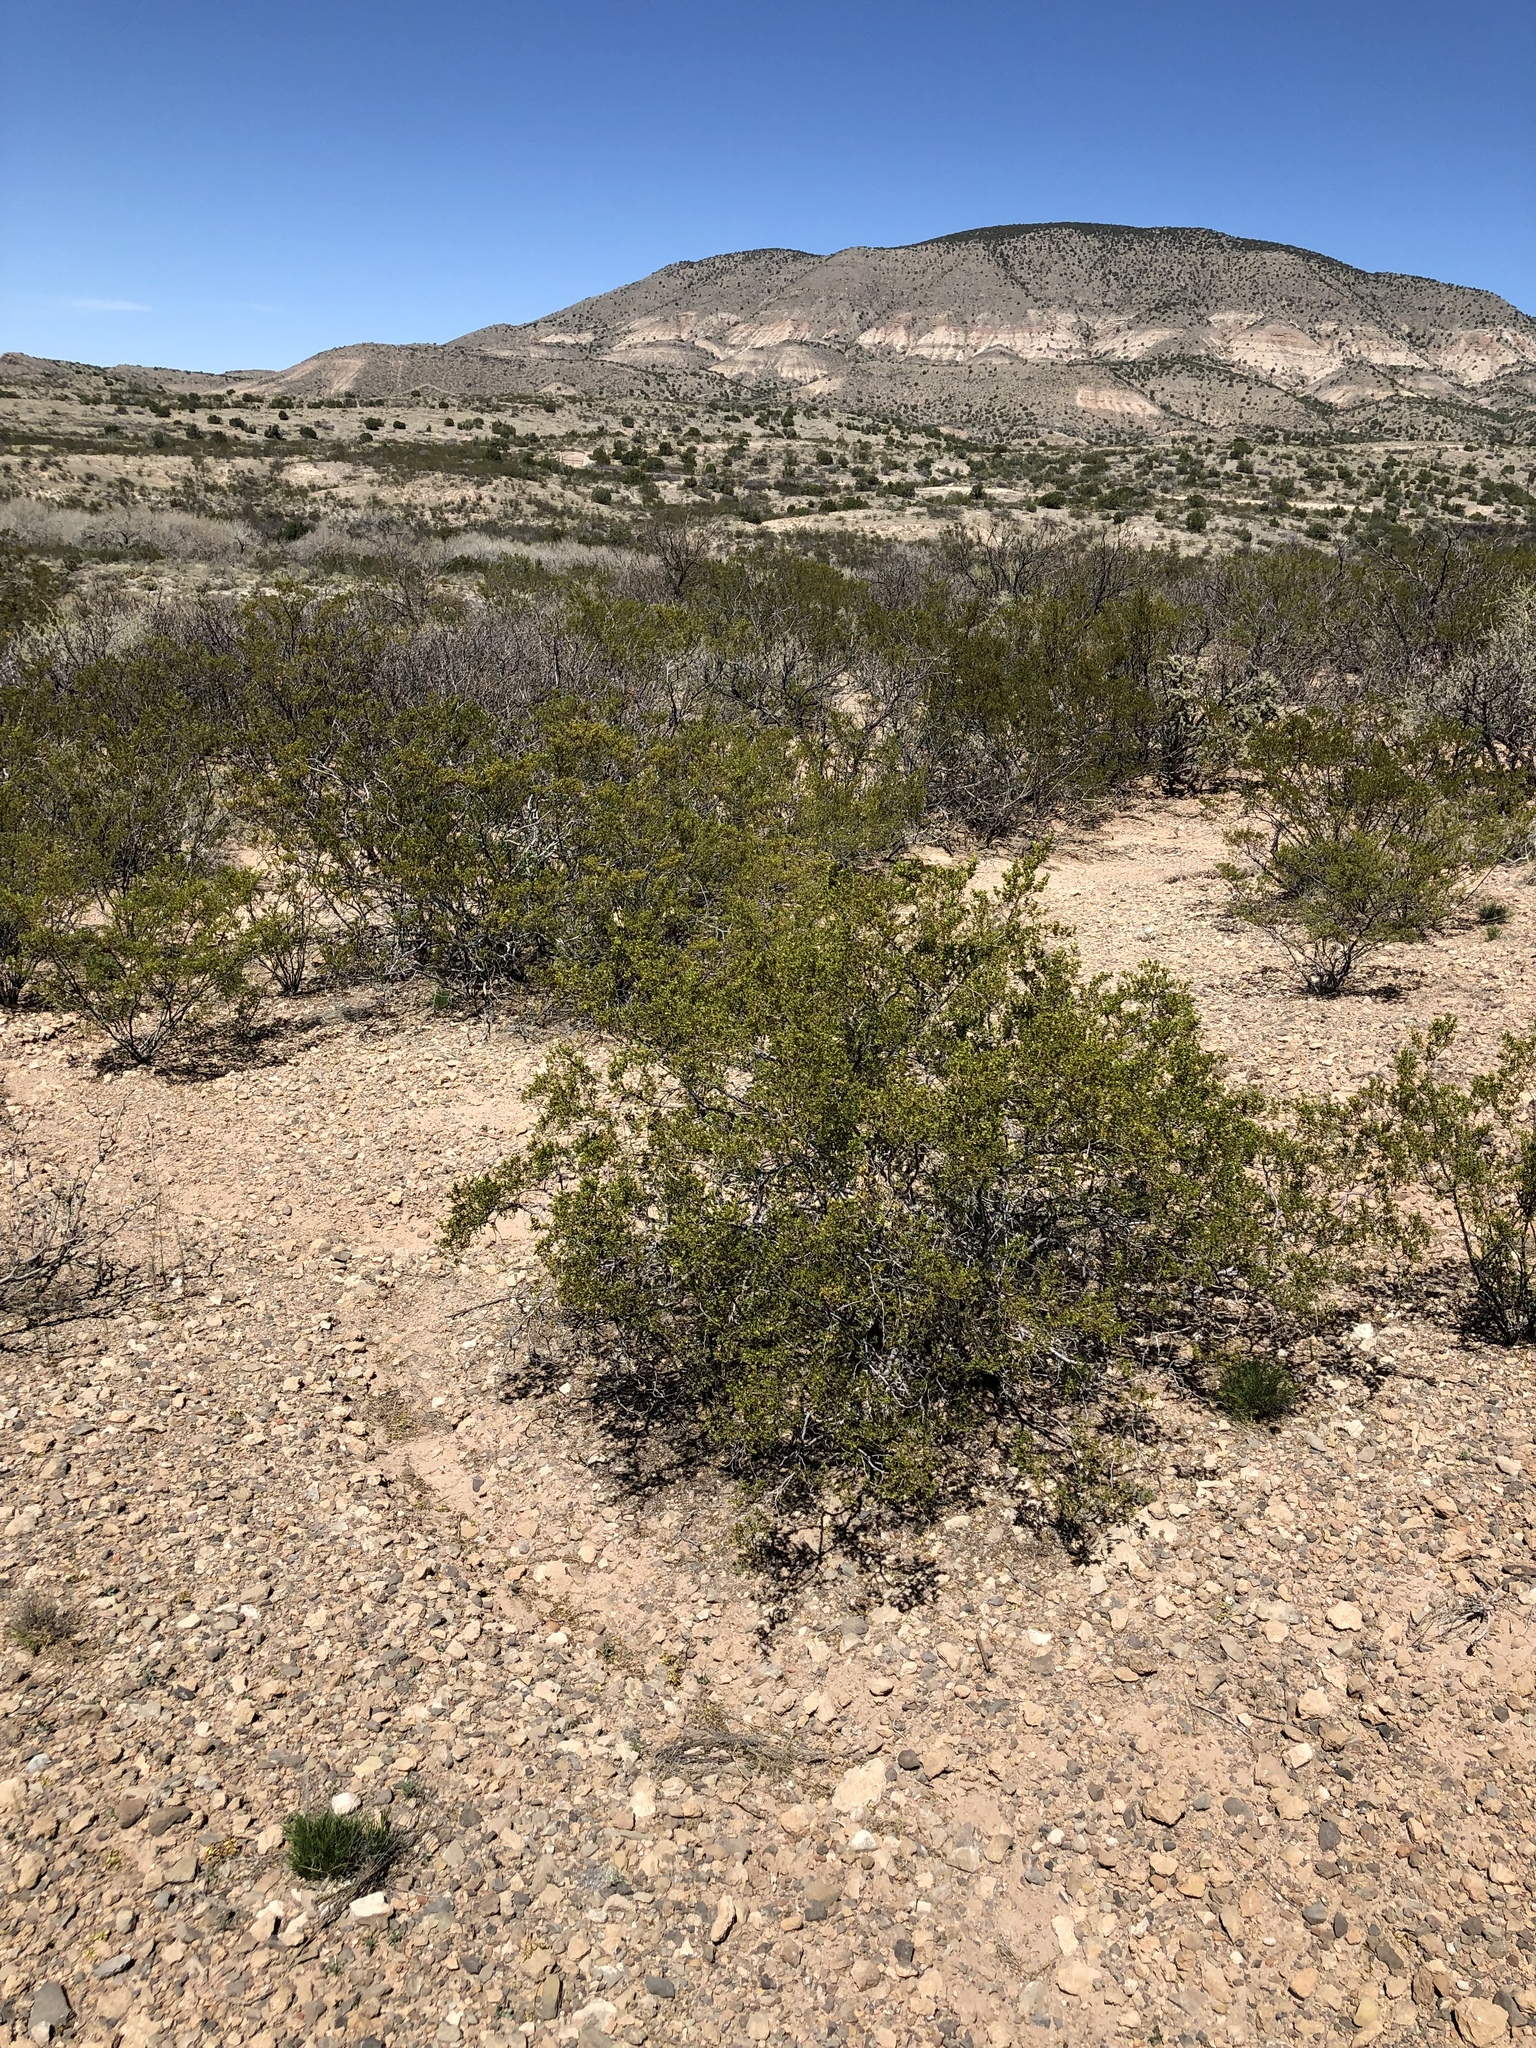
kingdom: Plantae
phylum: Tracheophyta
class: Magnoliopsida
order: Zygophyllales
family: Zygophyllaceae
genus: Larrea
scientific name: Larrea tridentata
